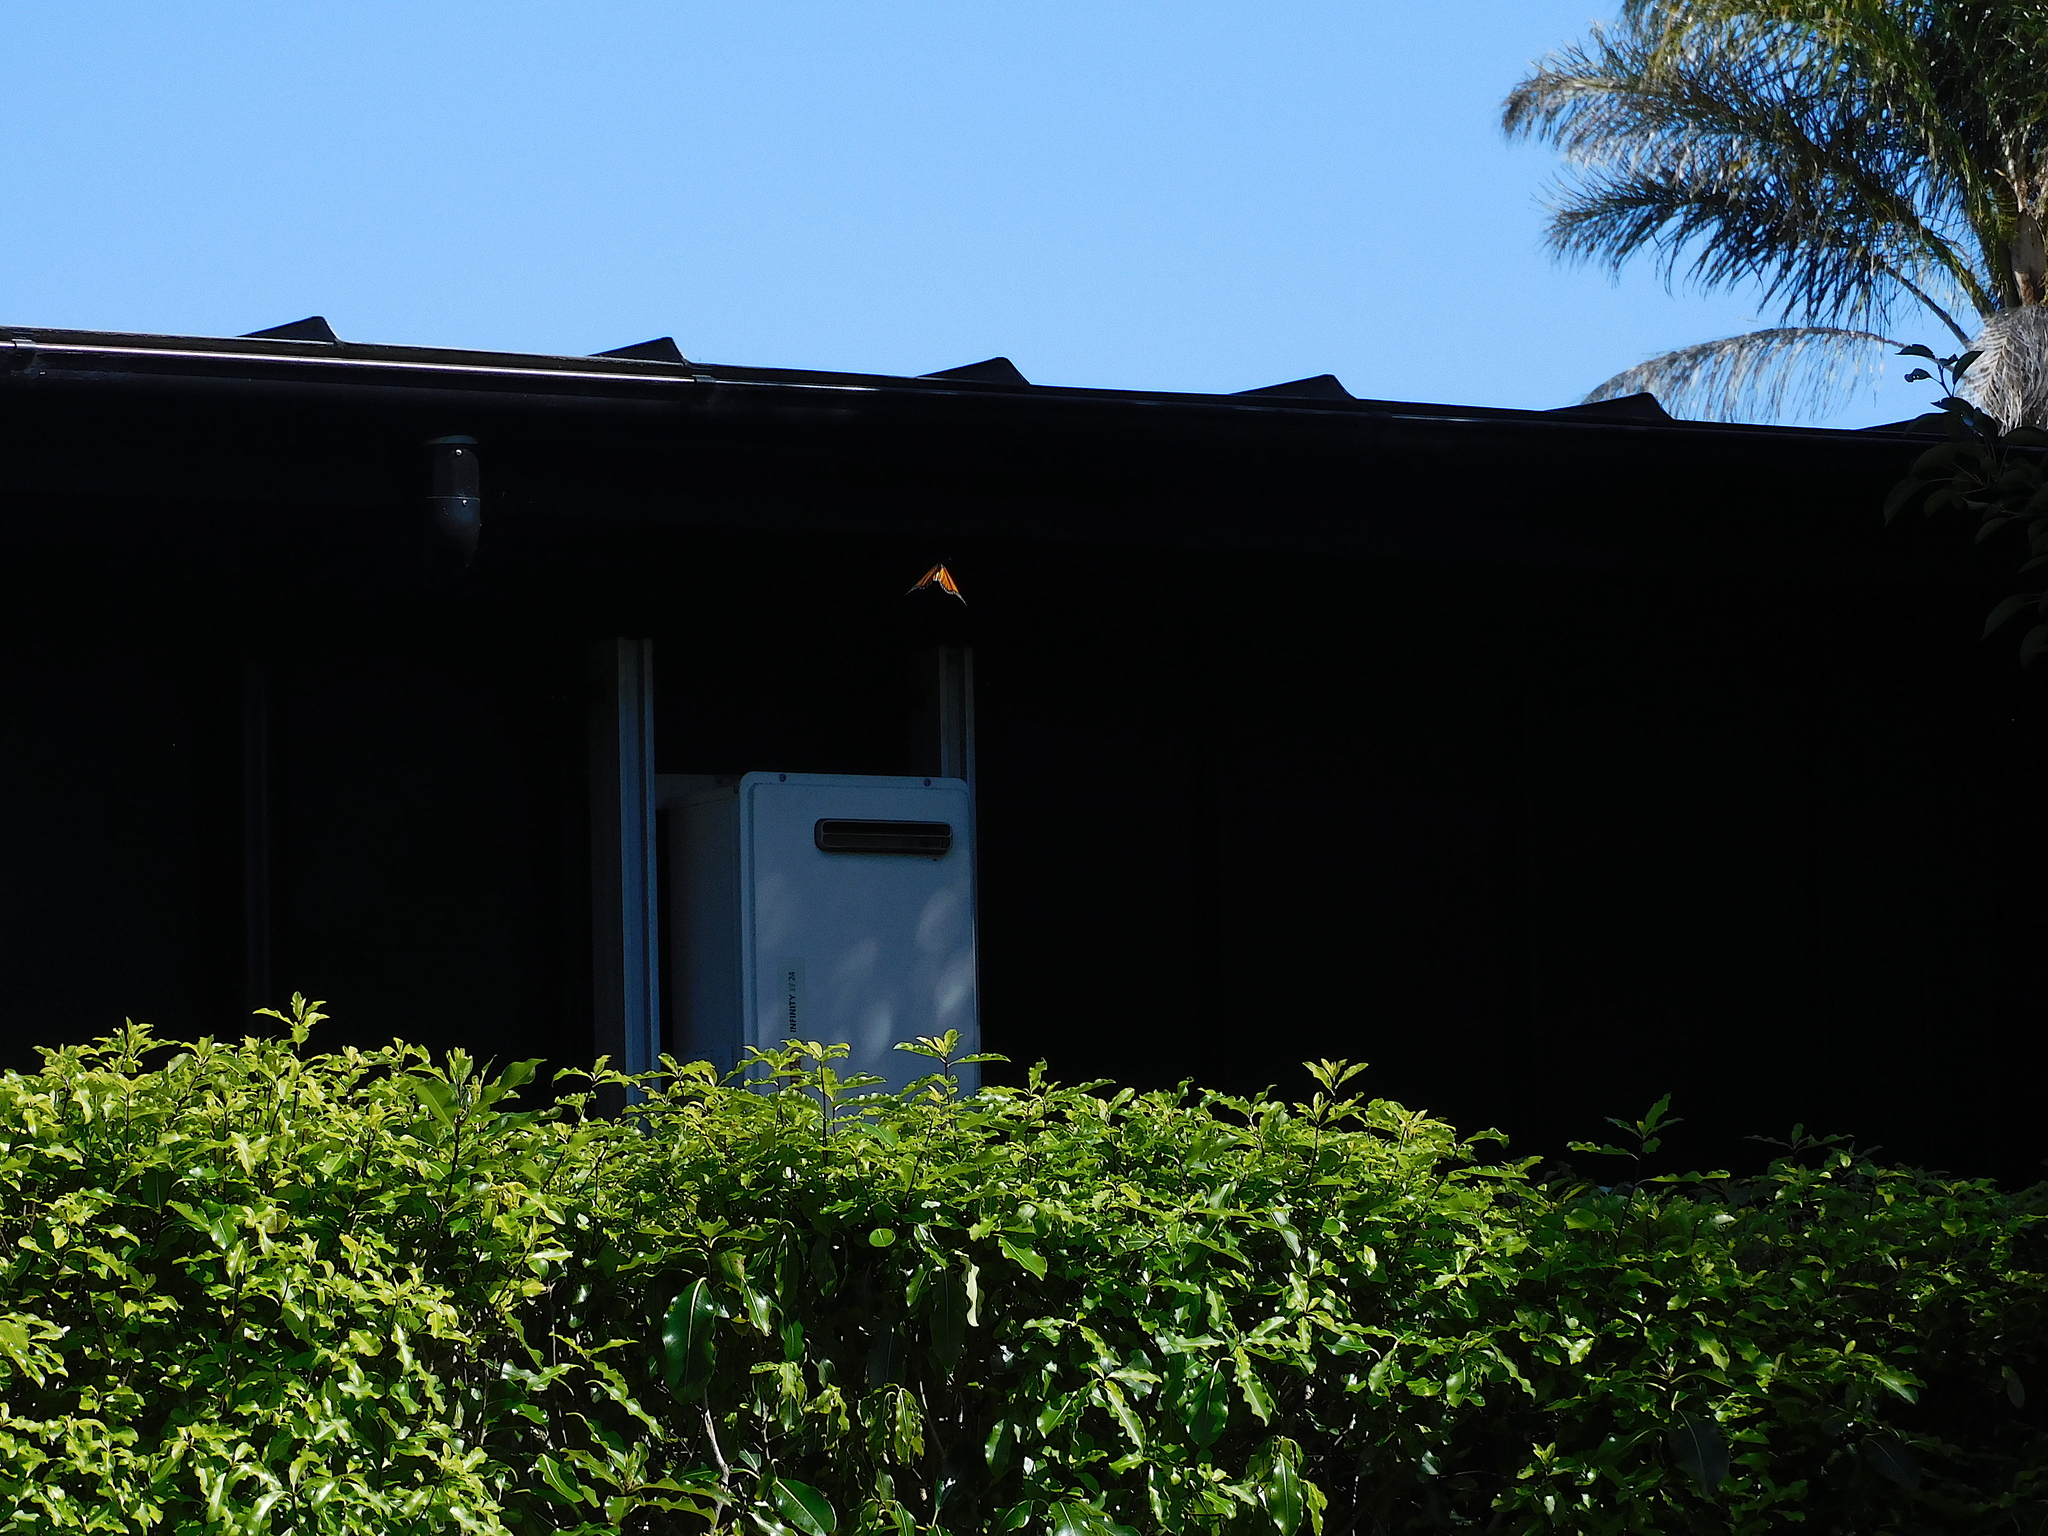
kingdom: Animalia
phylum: Arthropoda
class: Insecta
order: Lepidoptera
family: Nymphalidae
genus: Danaus
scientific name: Danaus plexippus
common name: Monarch
